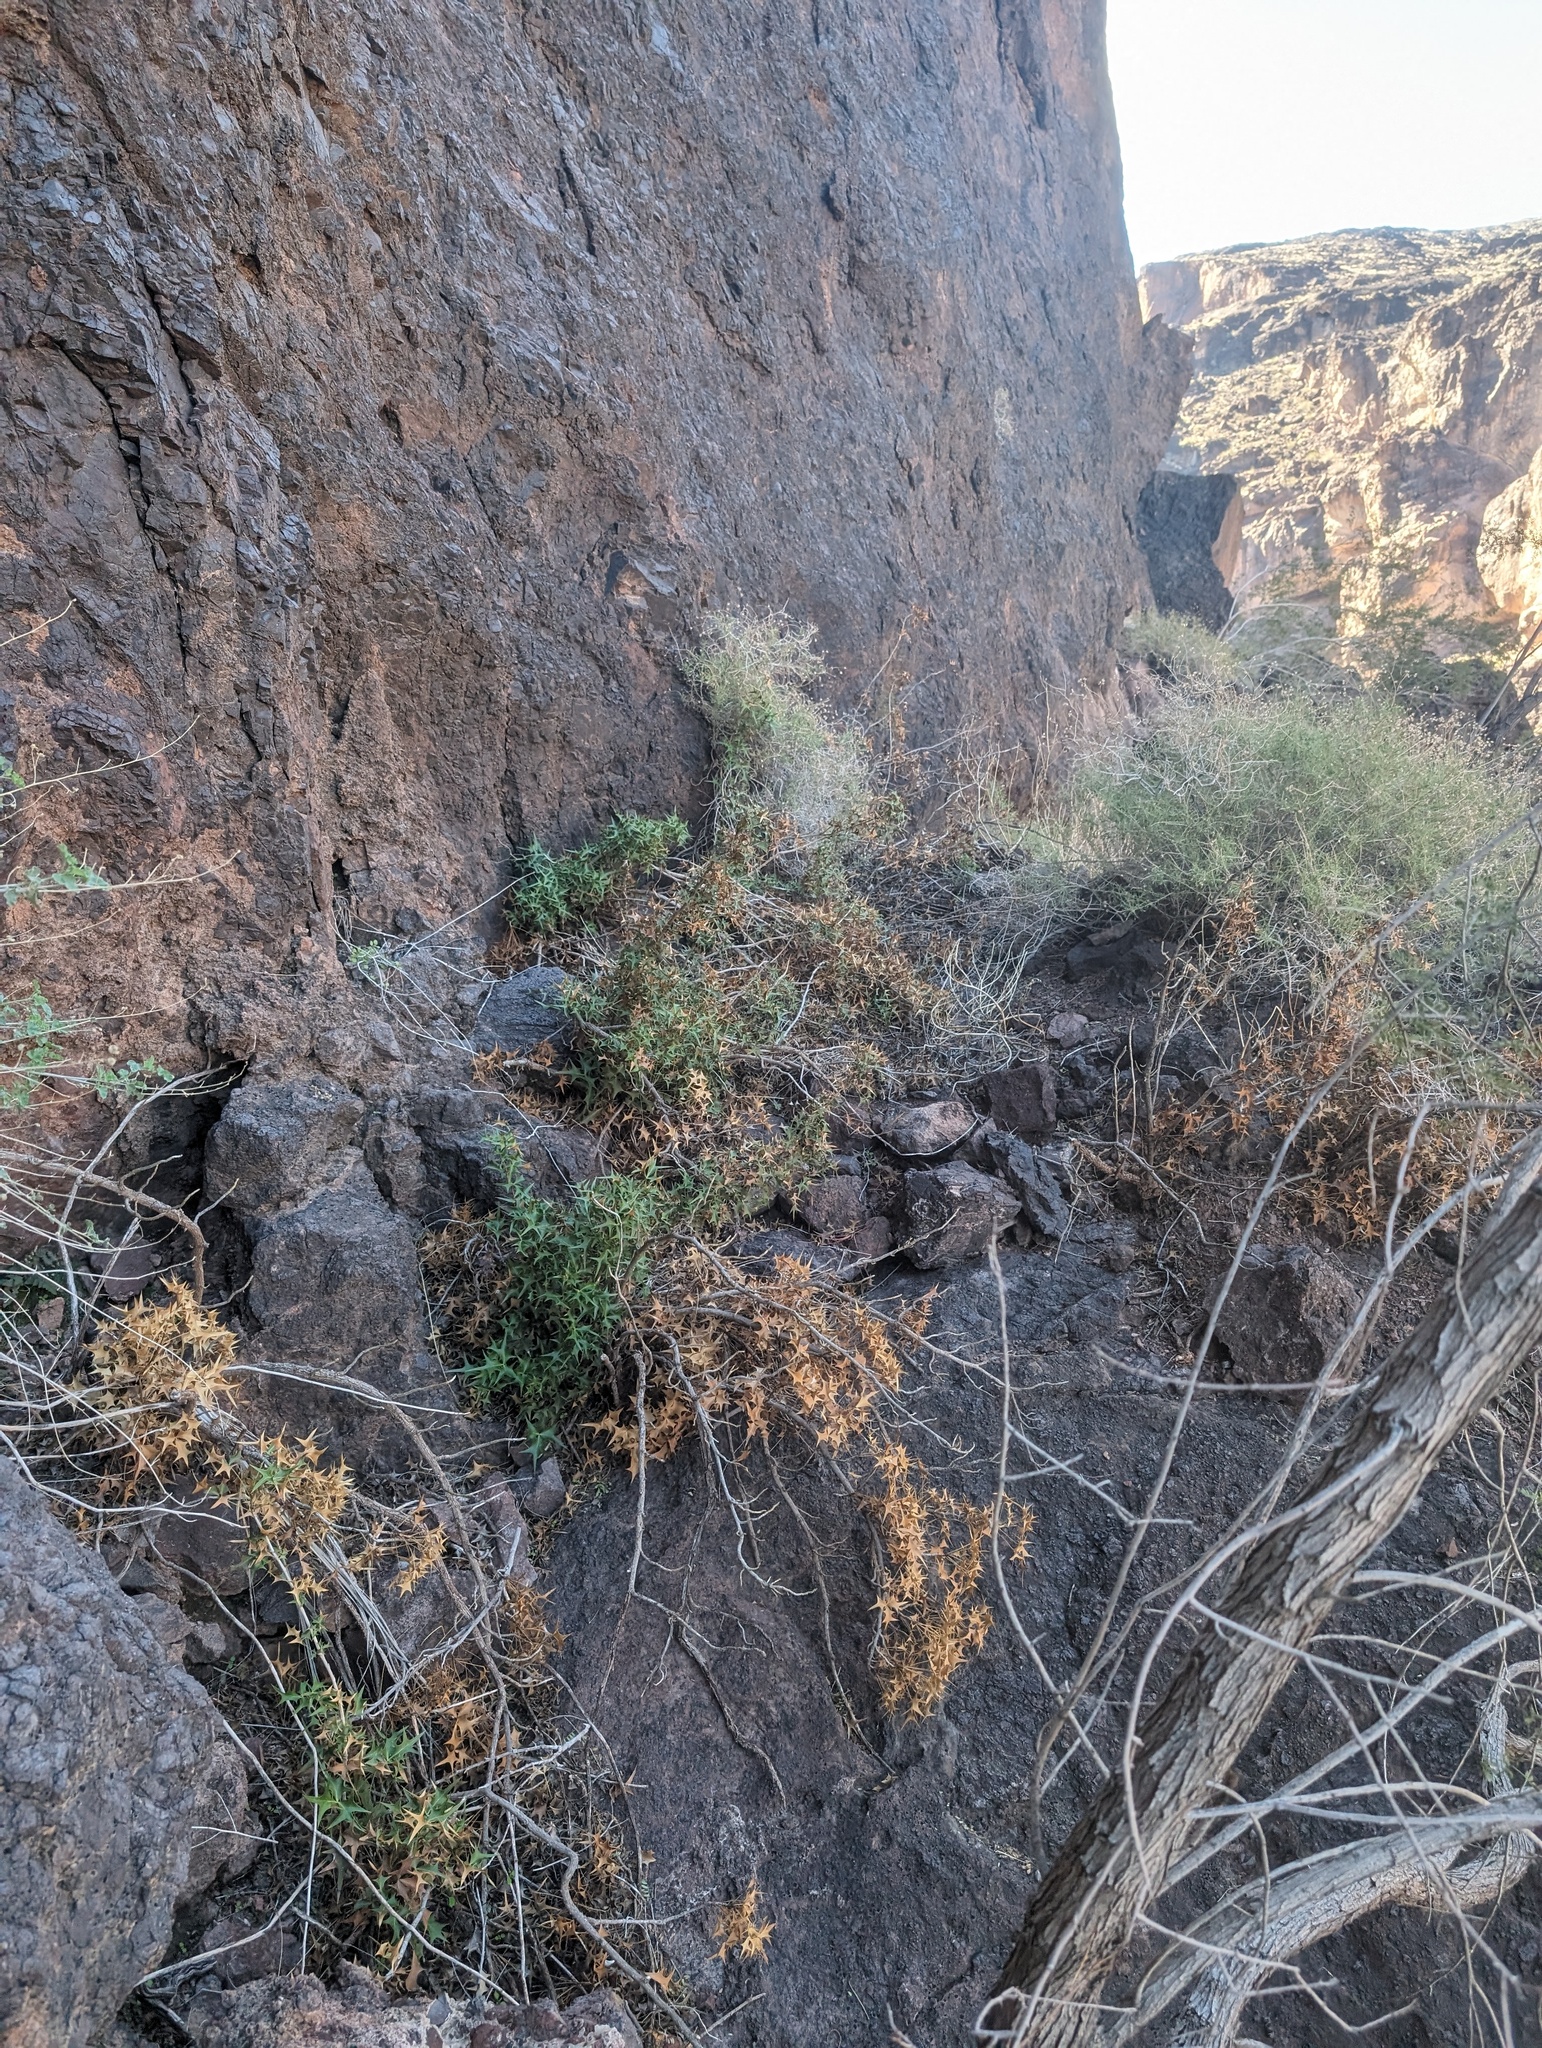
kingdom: Plantae
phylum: Tracheophyta
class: Magnoliopsida
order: Ranunculales
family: Berberidaceae
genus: Mahonia
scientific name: Mahonia harrisoniana
